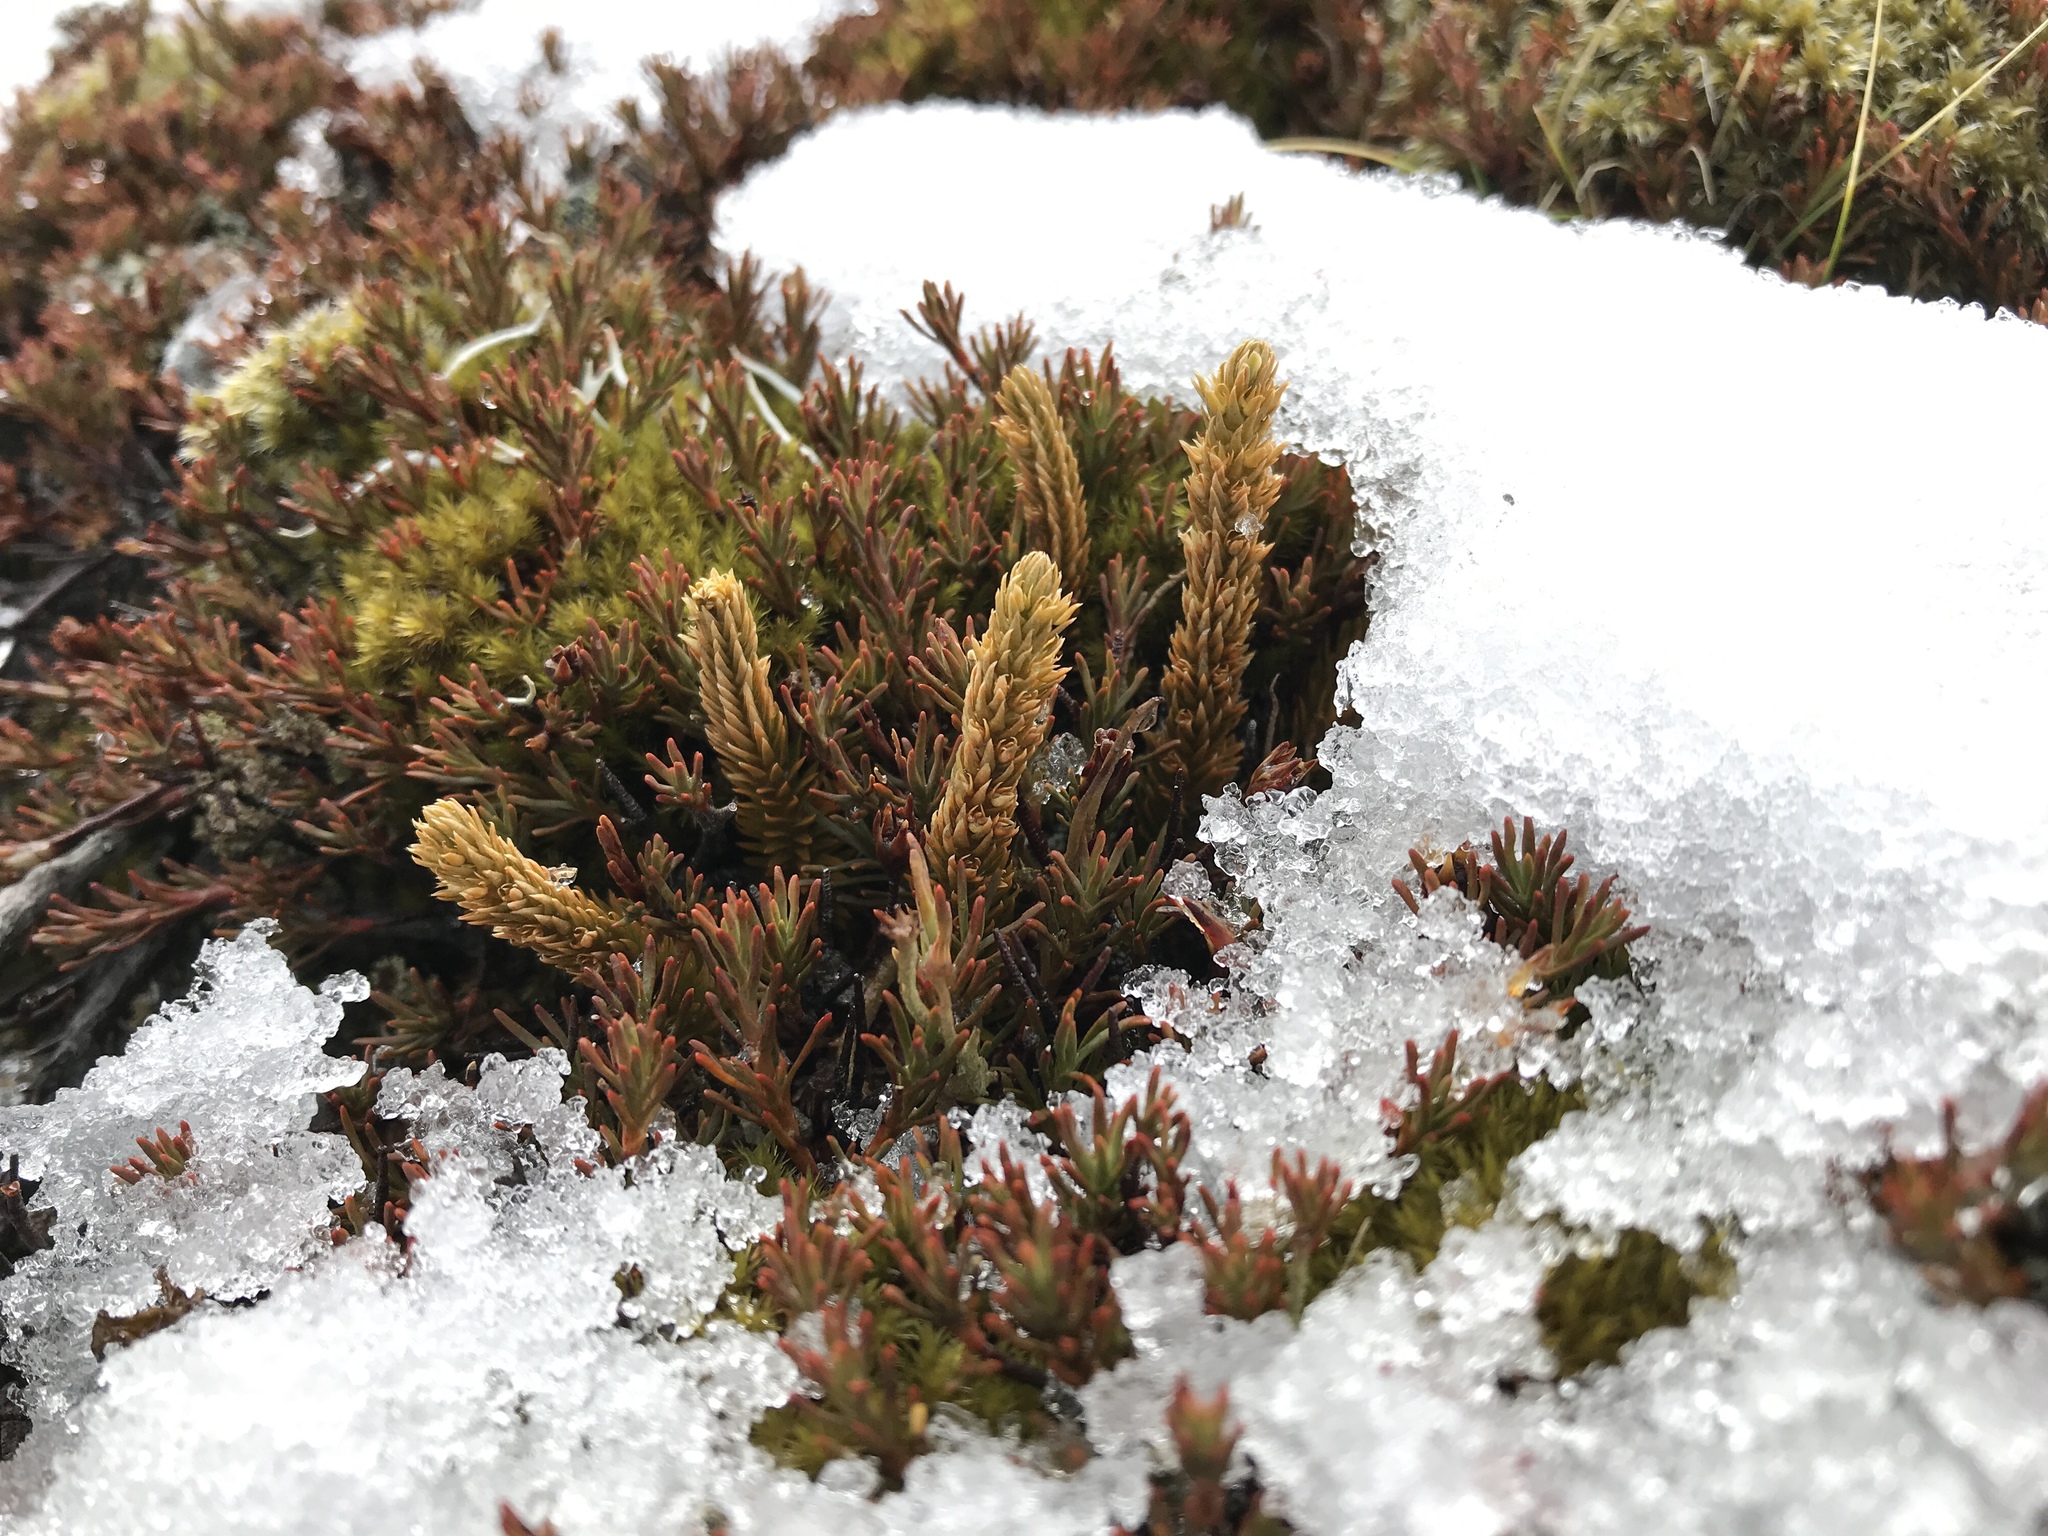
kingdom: Plantae
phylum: Tracheophyta
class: Lycopodiopsida
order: Lycopodiales
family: Lycopodiaceae
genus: Huperzia
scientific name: Huperzia australiana
